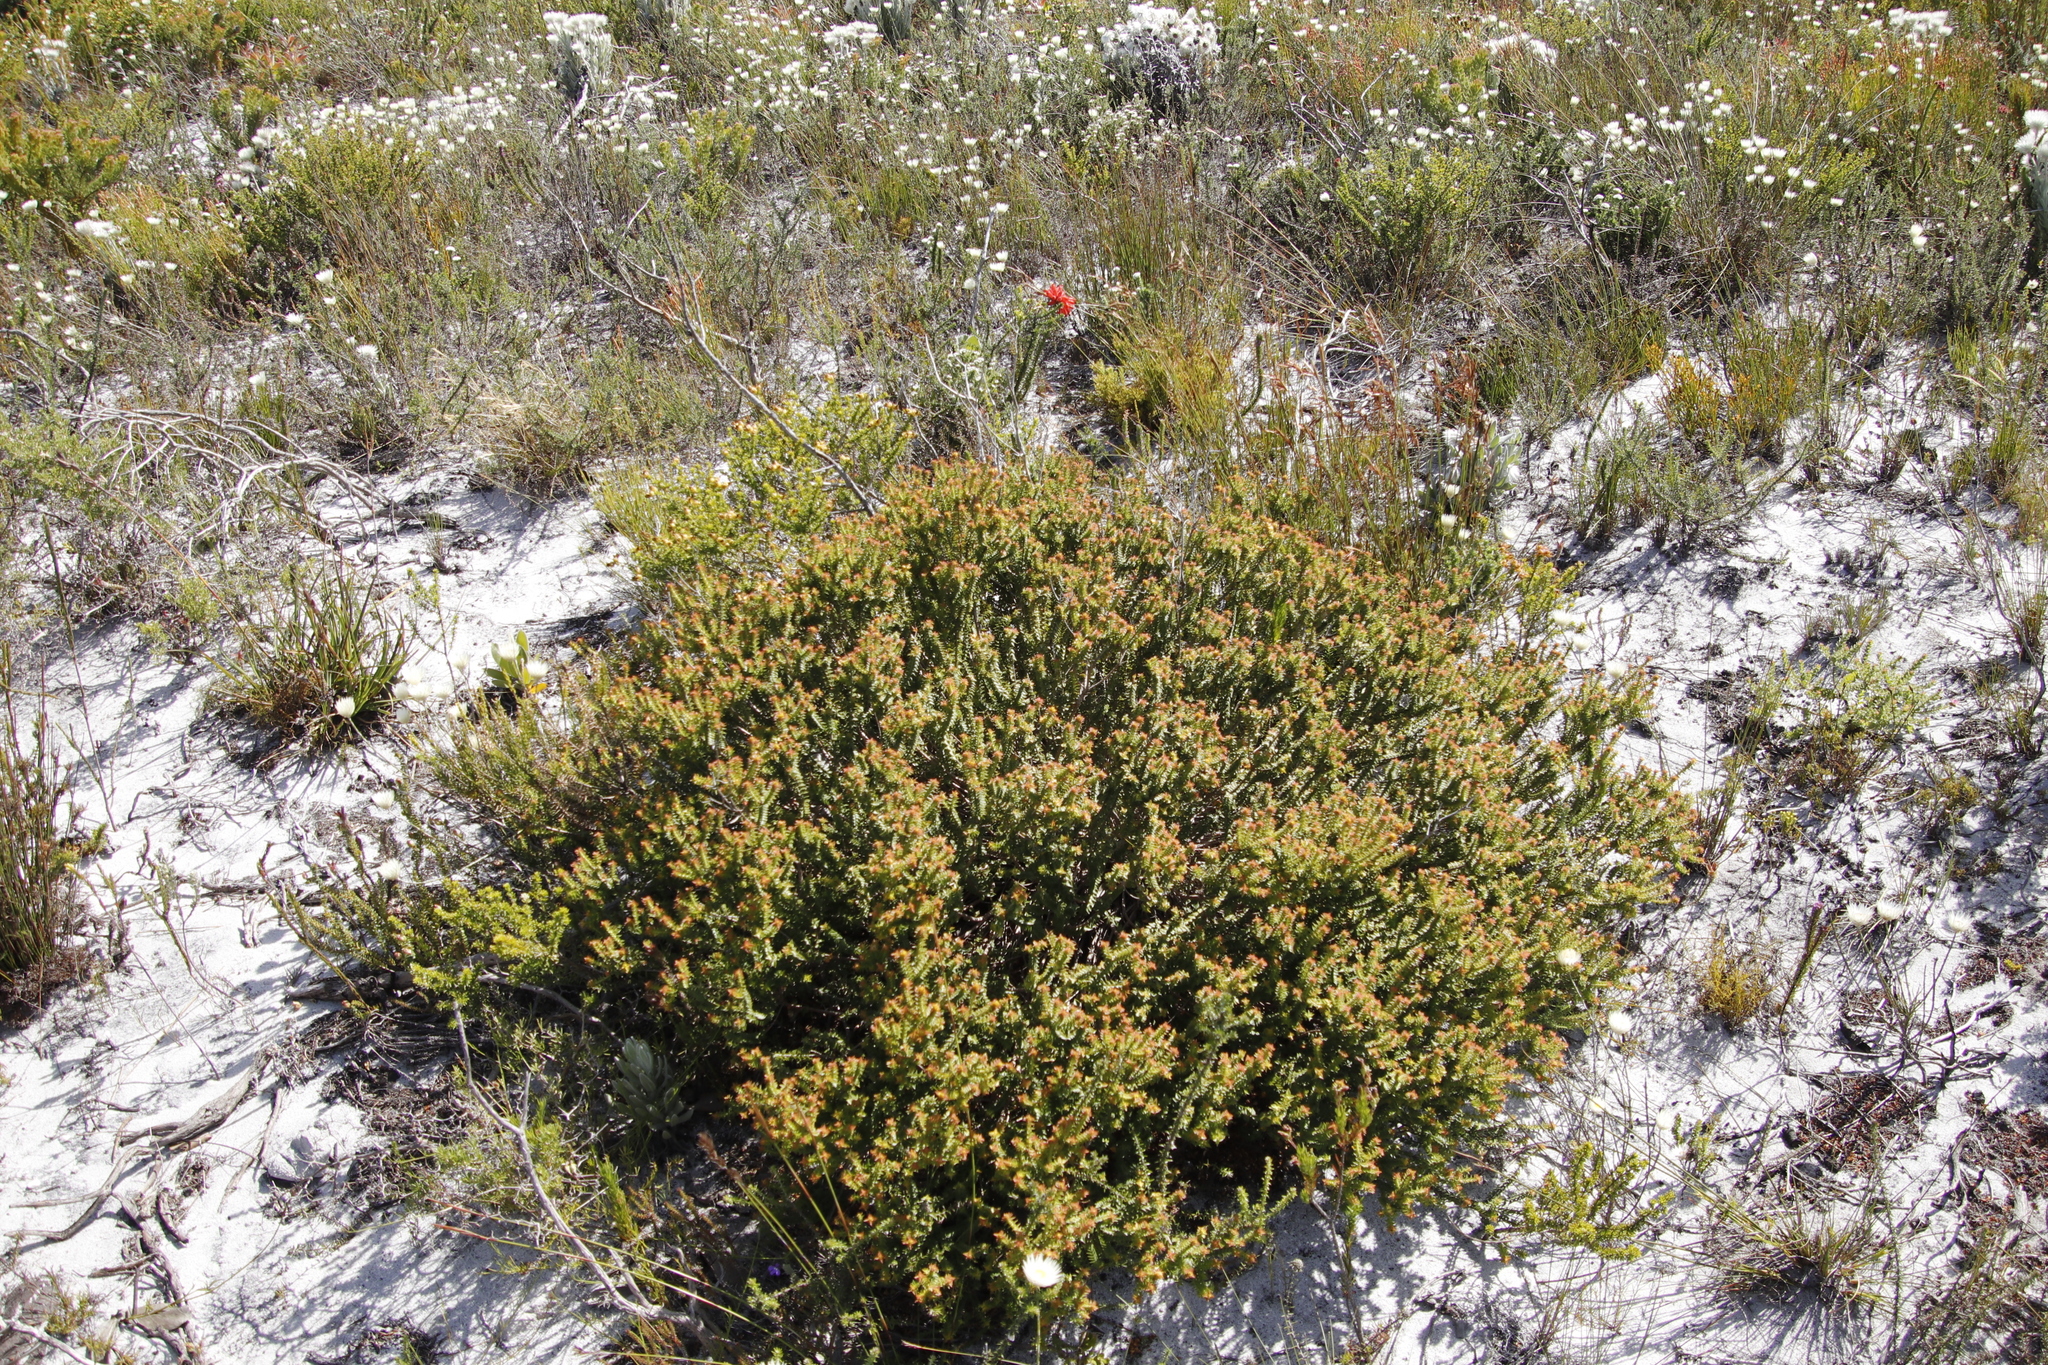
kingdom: Plantae
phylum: Tracheophyta
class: Magnoliopsida
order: Myrtales
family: Penaeaceae
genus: Penaea
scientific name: Penaea mucronata
